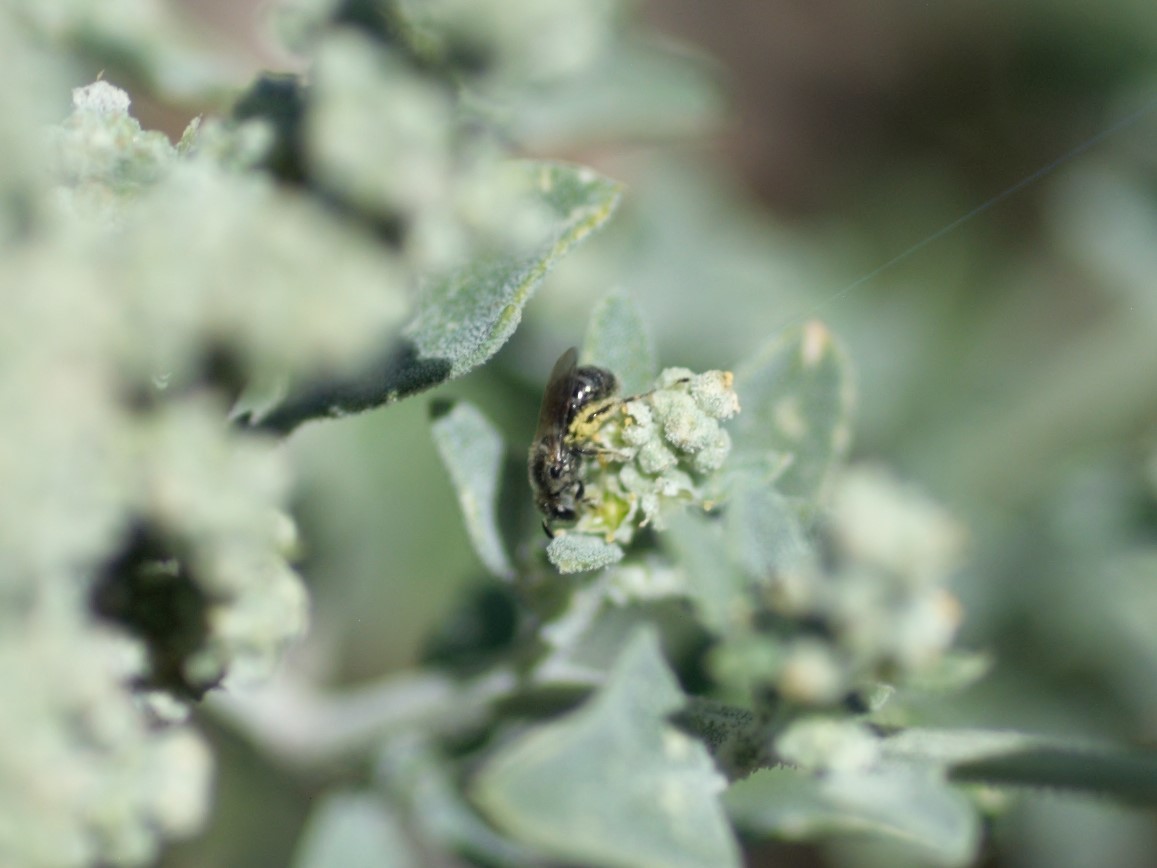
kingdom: Animalia
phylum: Arthropoda
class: Insecta
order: Hymenoptera
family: Halictidae
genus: Dialictus
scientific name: Dialictus
